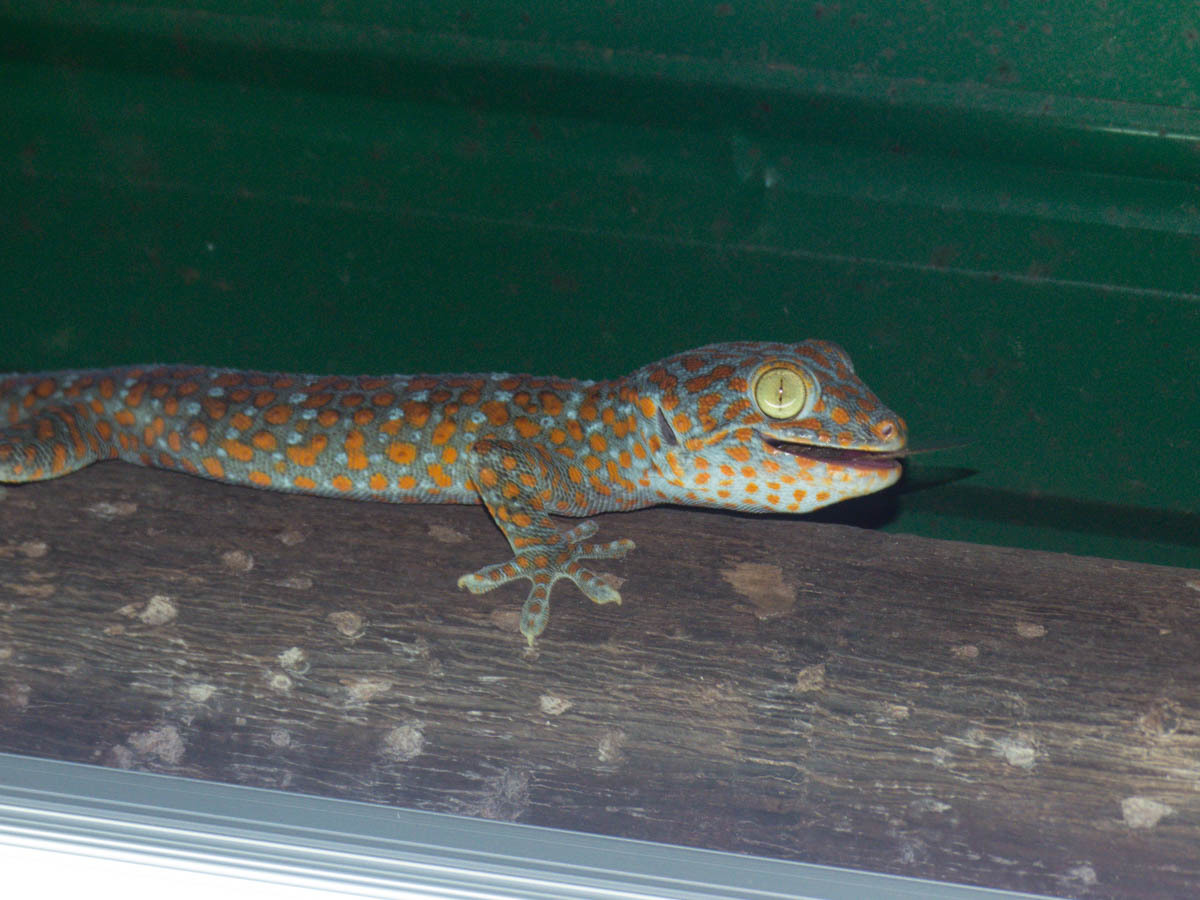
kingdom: Animalia
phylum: Chordata
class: Squamata
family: Gekkonidae
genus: Gekko
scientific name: Gekko gecko
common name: Tokay gecko
